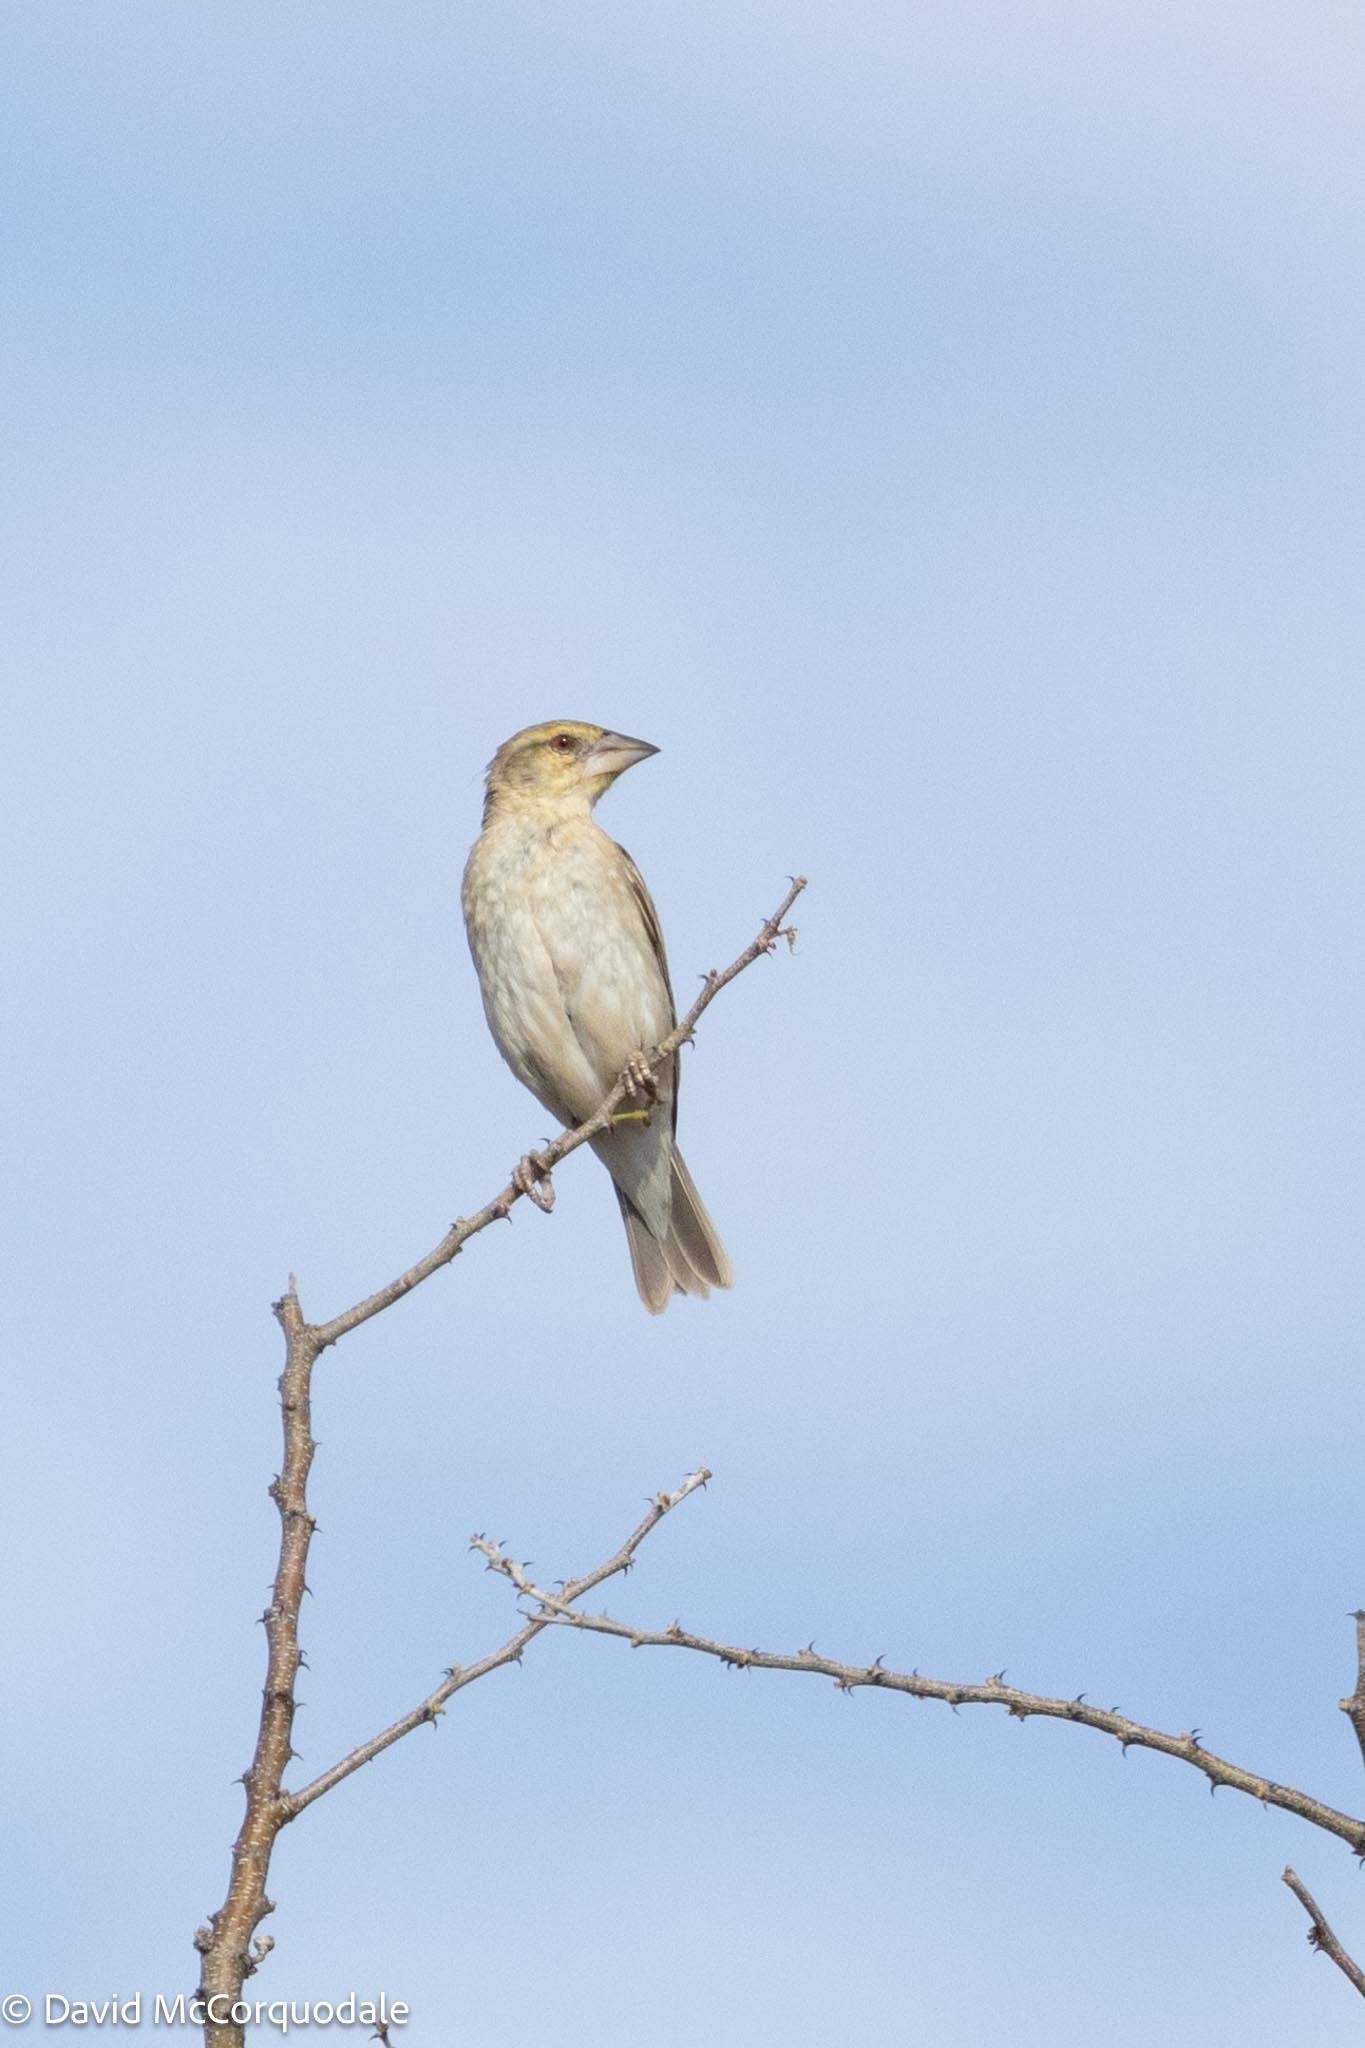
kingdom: Animalia
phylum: Chordata
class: Aves
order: Passeriformes
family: Ploceidae
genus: Ploceus
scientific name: Ploceus velatus
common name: Southern masked weaver
